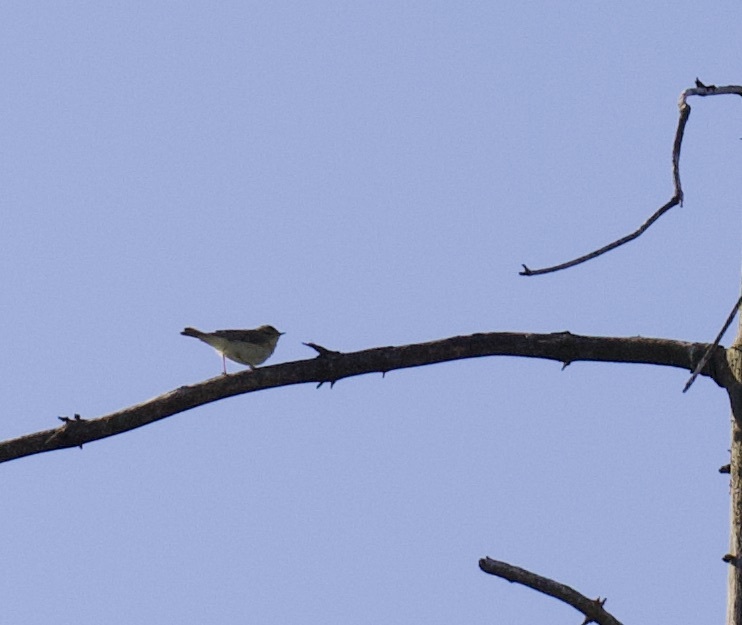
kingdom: Animalia
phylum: Chordata
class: Aves
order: Passeriformes
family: Phylloscopidae
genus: Phylloscopus
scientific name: Phylloscopus trochilus
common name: Willow warbler
